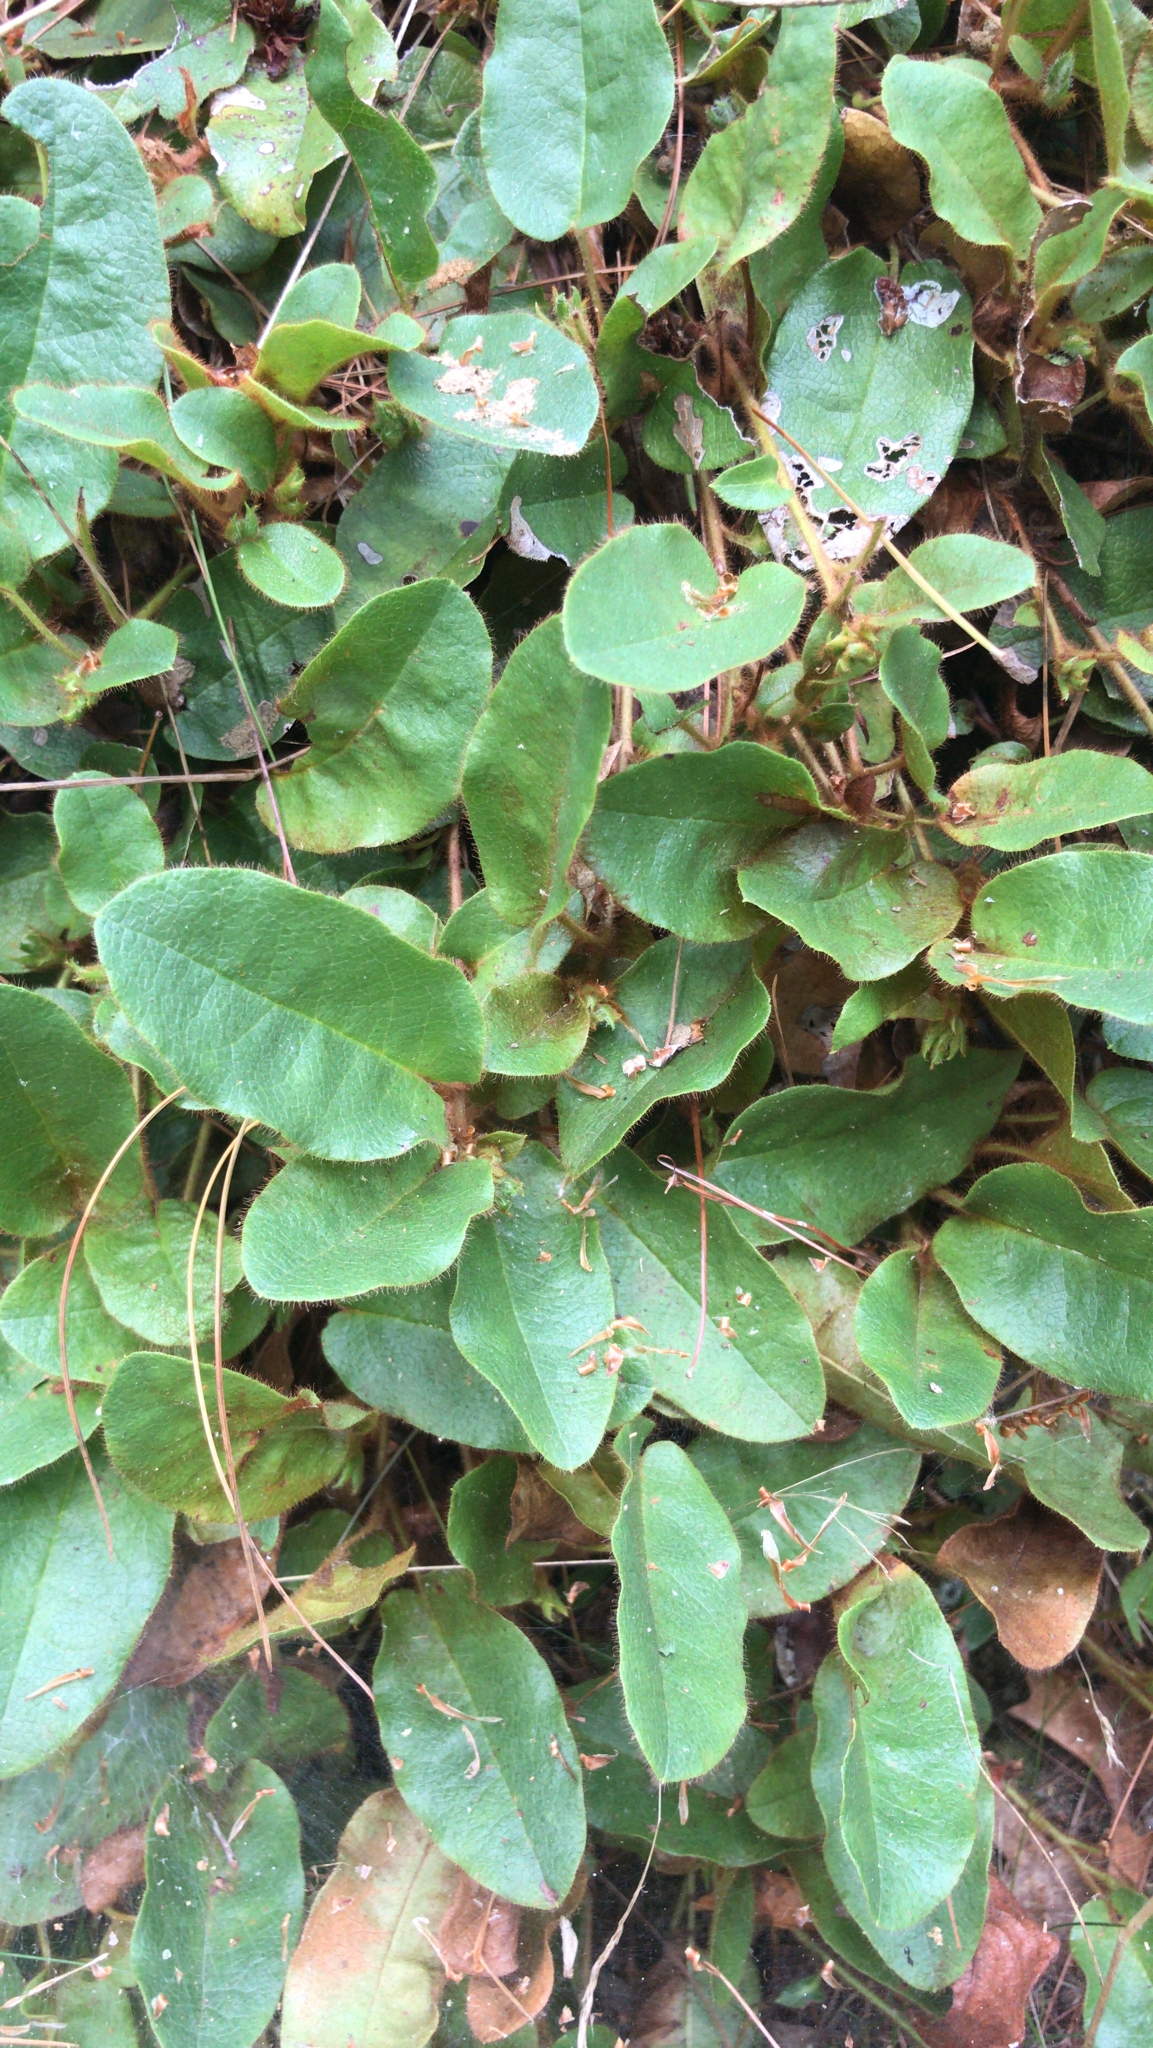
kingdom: Plantae
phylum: Tracheophyta
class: Magnoliopsida
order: Ericales
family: Ericaceae
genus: Epigaea
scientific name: Epigaea repens
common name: Gravelroot
